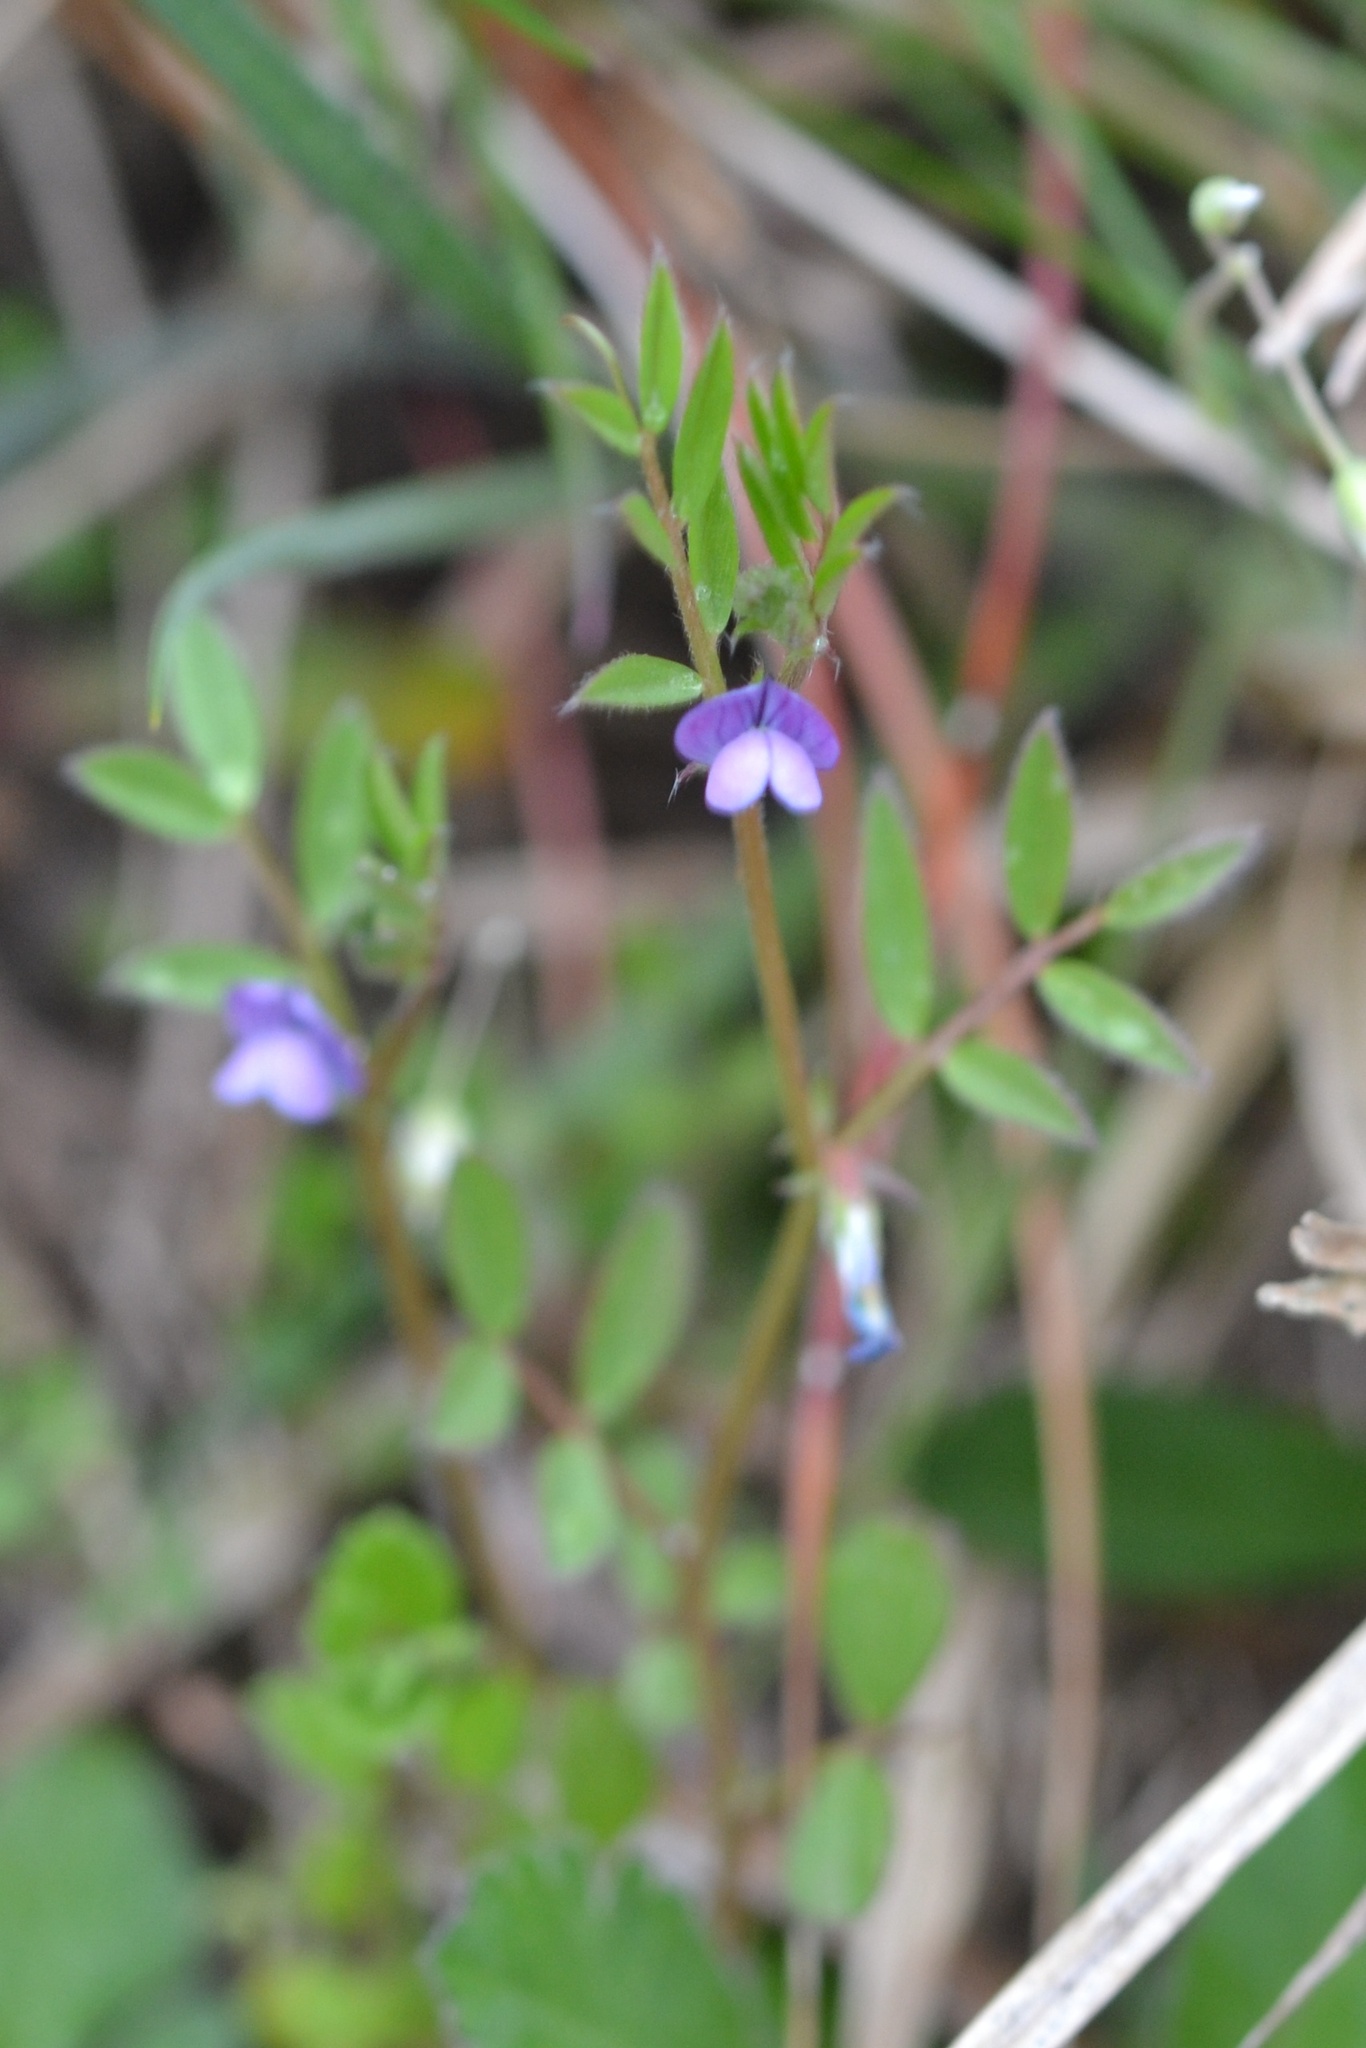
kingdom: Plantae
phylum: Tracheophyta
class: Magnoliopsida
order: Fabales
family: Fabaceae
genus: Vicia
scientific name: Vicia lathyroides
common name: Spring vetch
